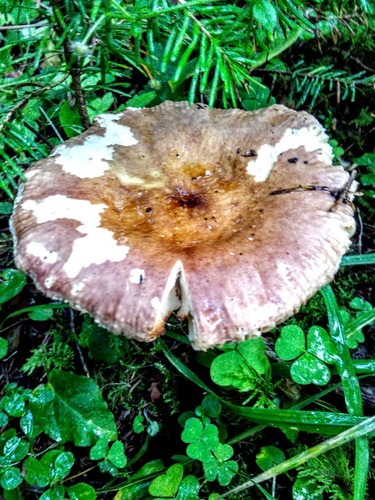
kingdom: Fungi
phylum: Basidiomycota
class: Agaricomycetes
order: Russulales
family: Russulaceae
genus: Russula
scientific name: Russula
